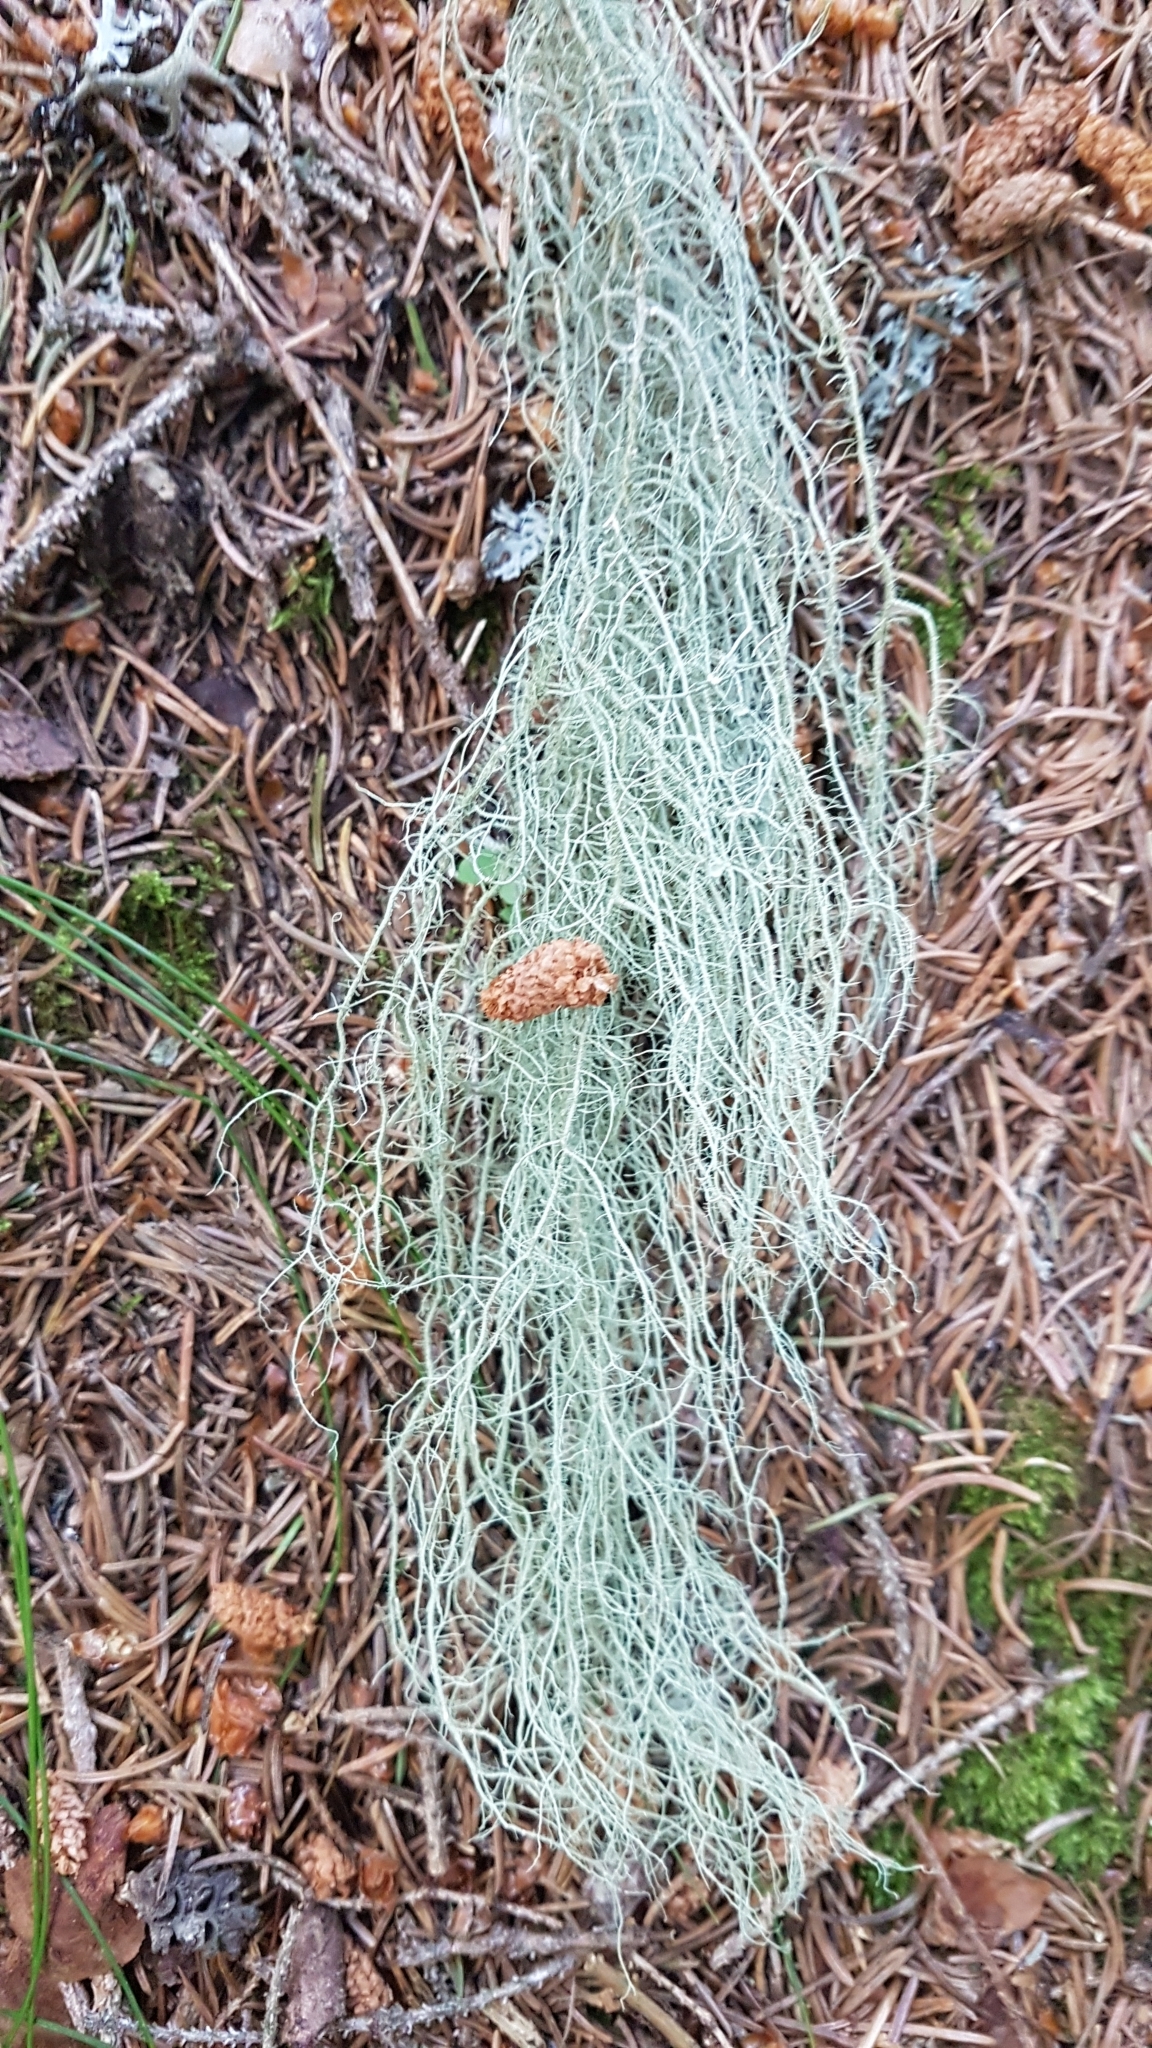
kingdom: Fungi
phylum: Ascomycota
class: Lecanoromycetes
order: Lecanorales
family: Parmeliaceae
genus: Usnea
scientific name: Usnea dasopoga
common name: Fishbone beard lichen
